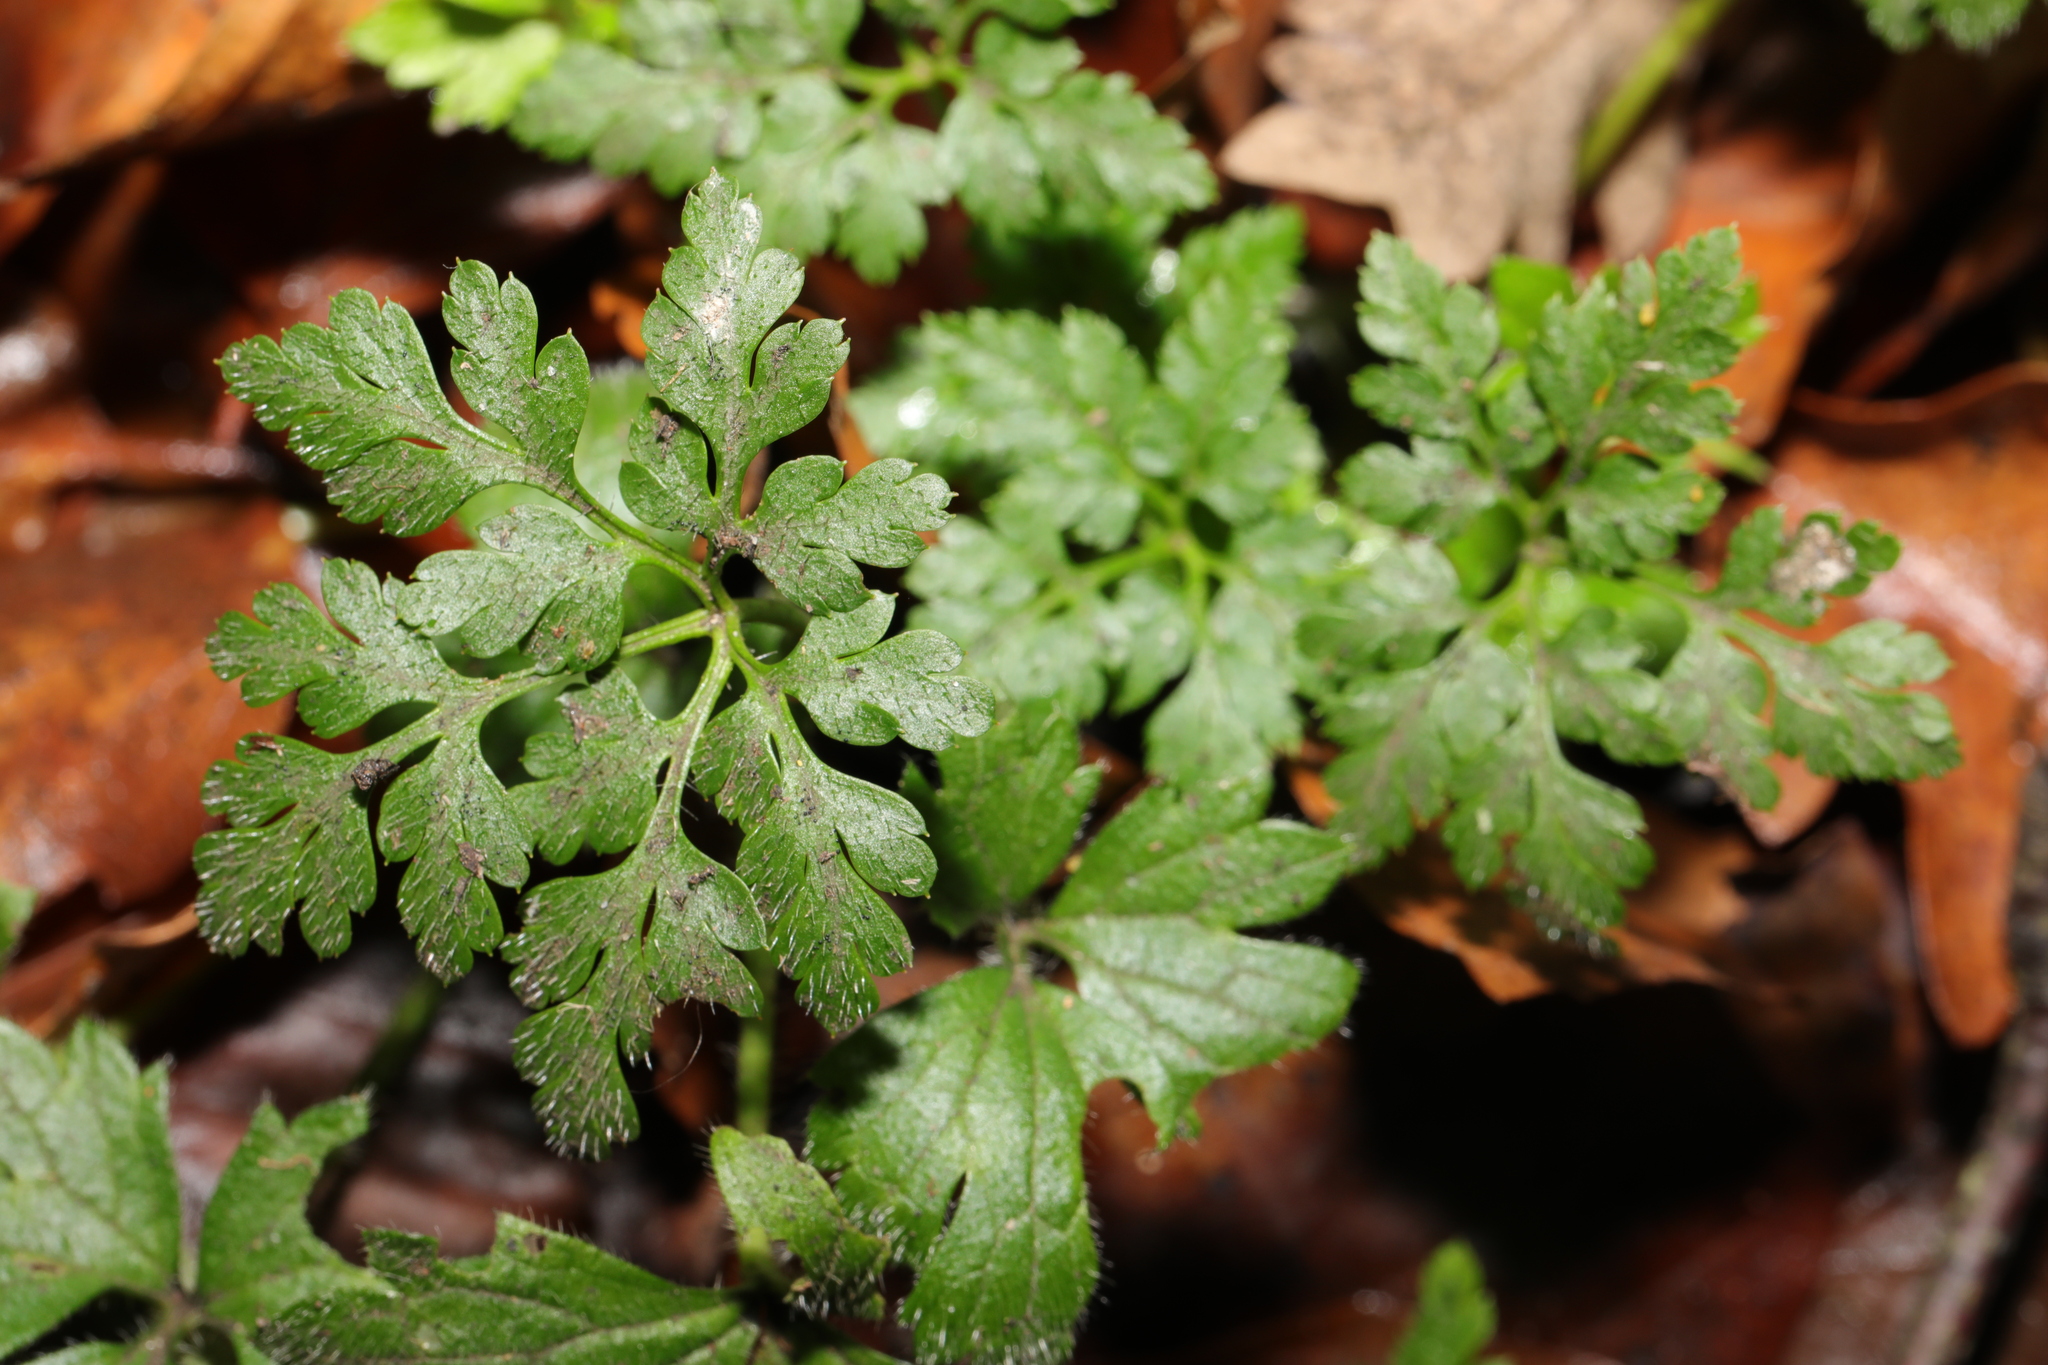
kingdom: Plantae
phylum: Tracheophyta
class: Magnoliopsida
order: Geraniales
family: Geraniaceae
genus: Geranium
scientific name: Geranium robertianum
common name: Herb-robert
